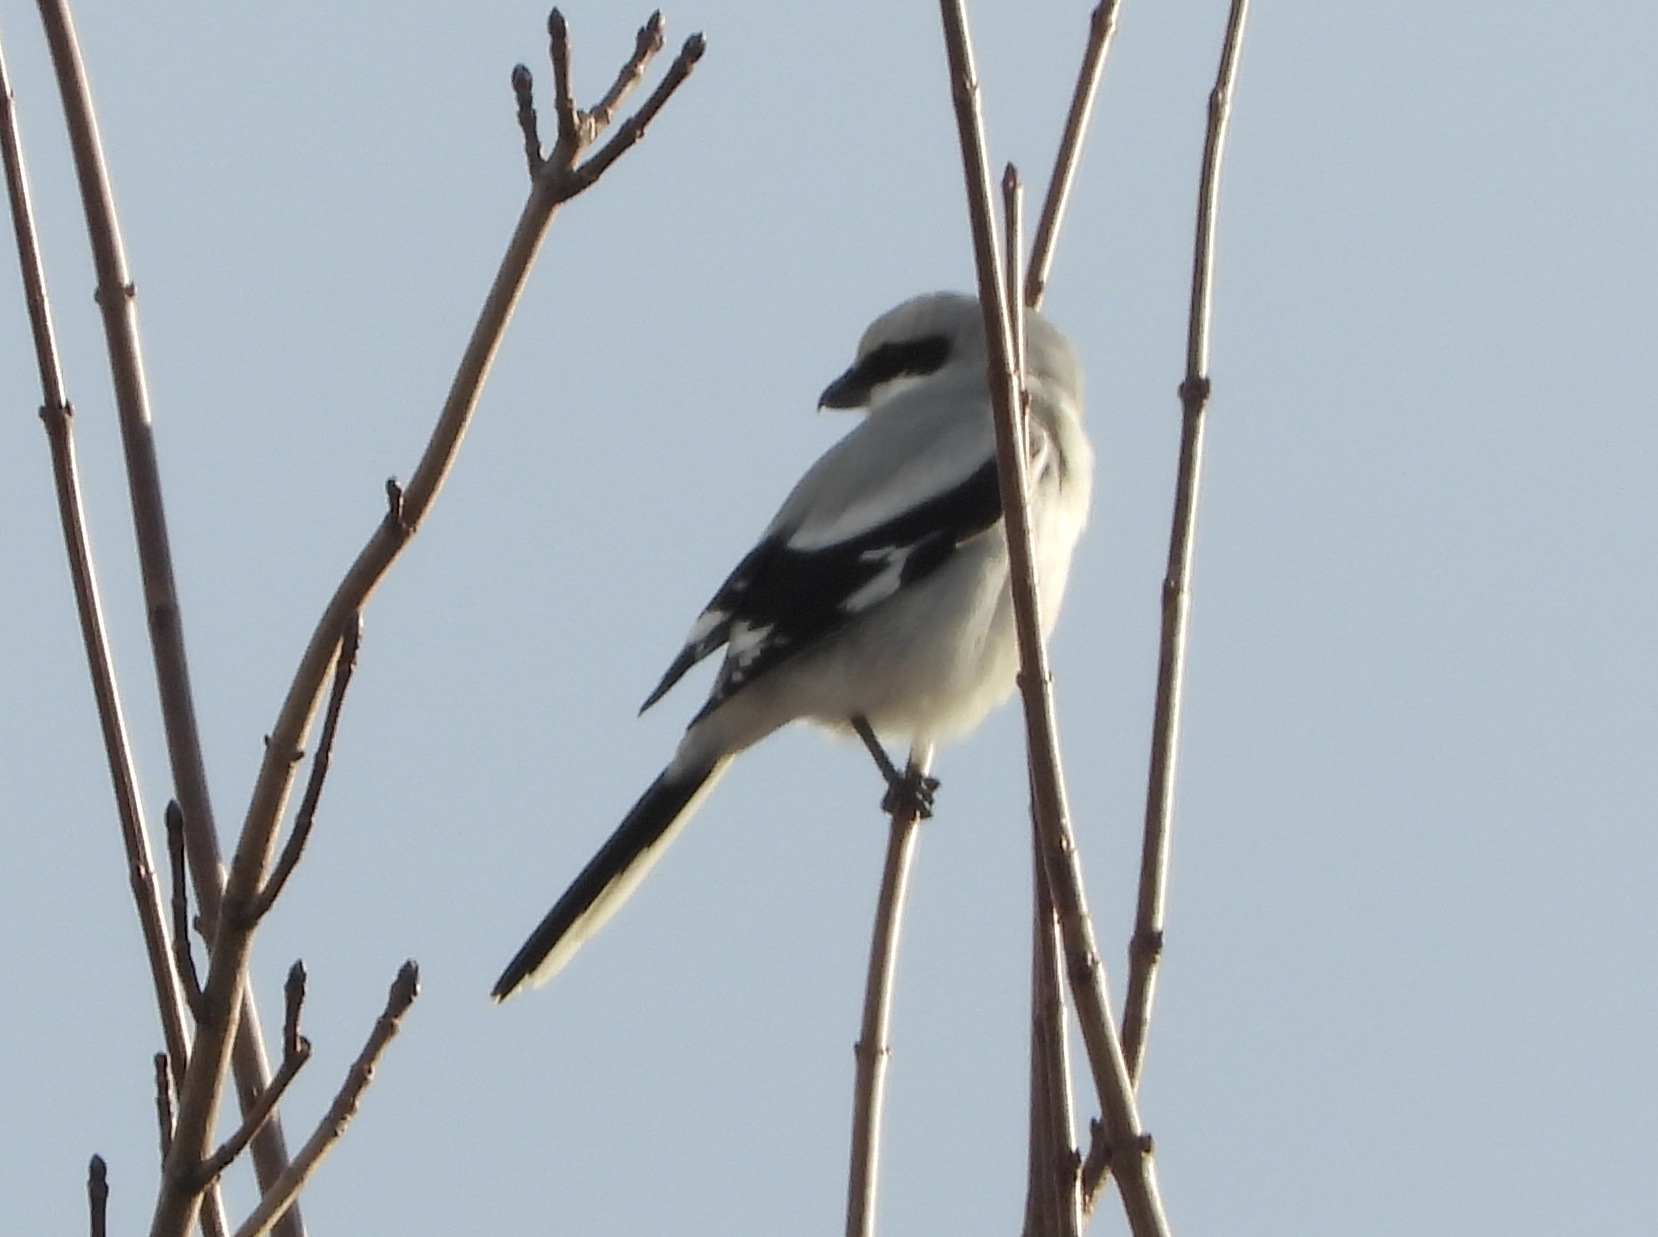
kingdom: Animalia
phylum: Chordata
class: Aves
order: Passeriformes
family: Laniidae
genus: Lanius
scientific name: Lanius excubitor
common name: Great grey shrike
